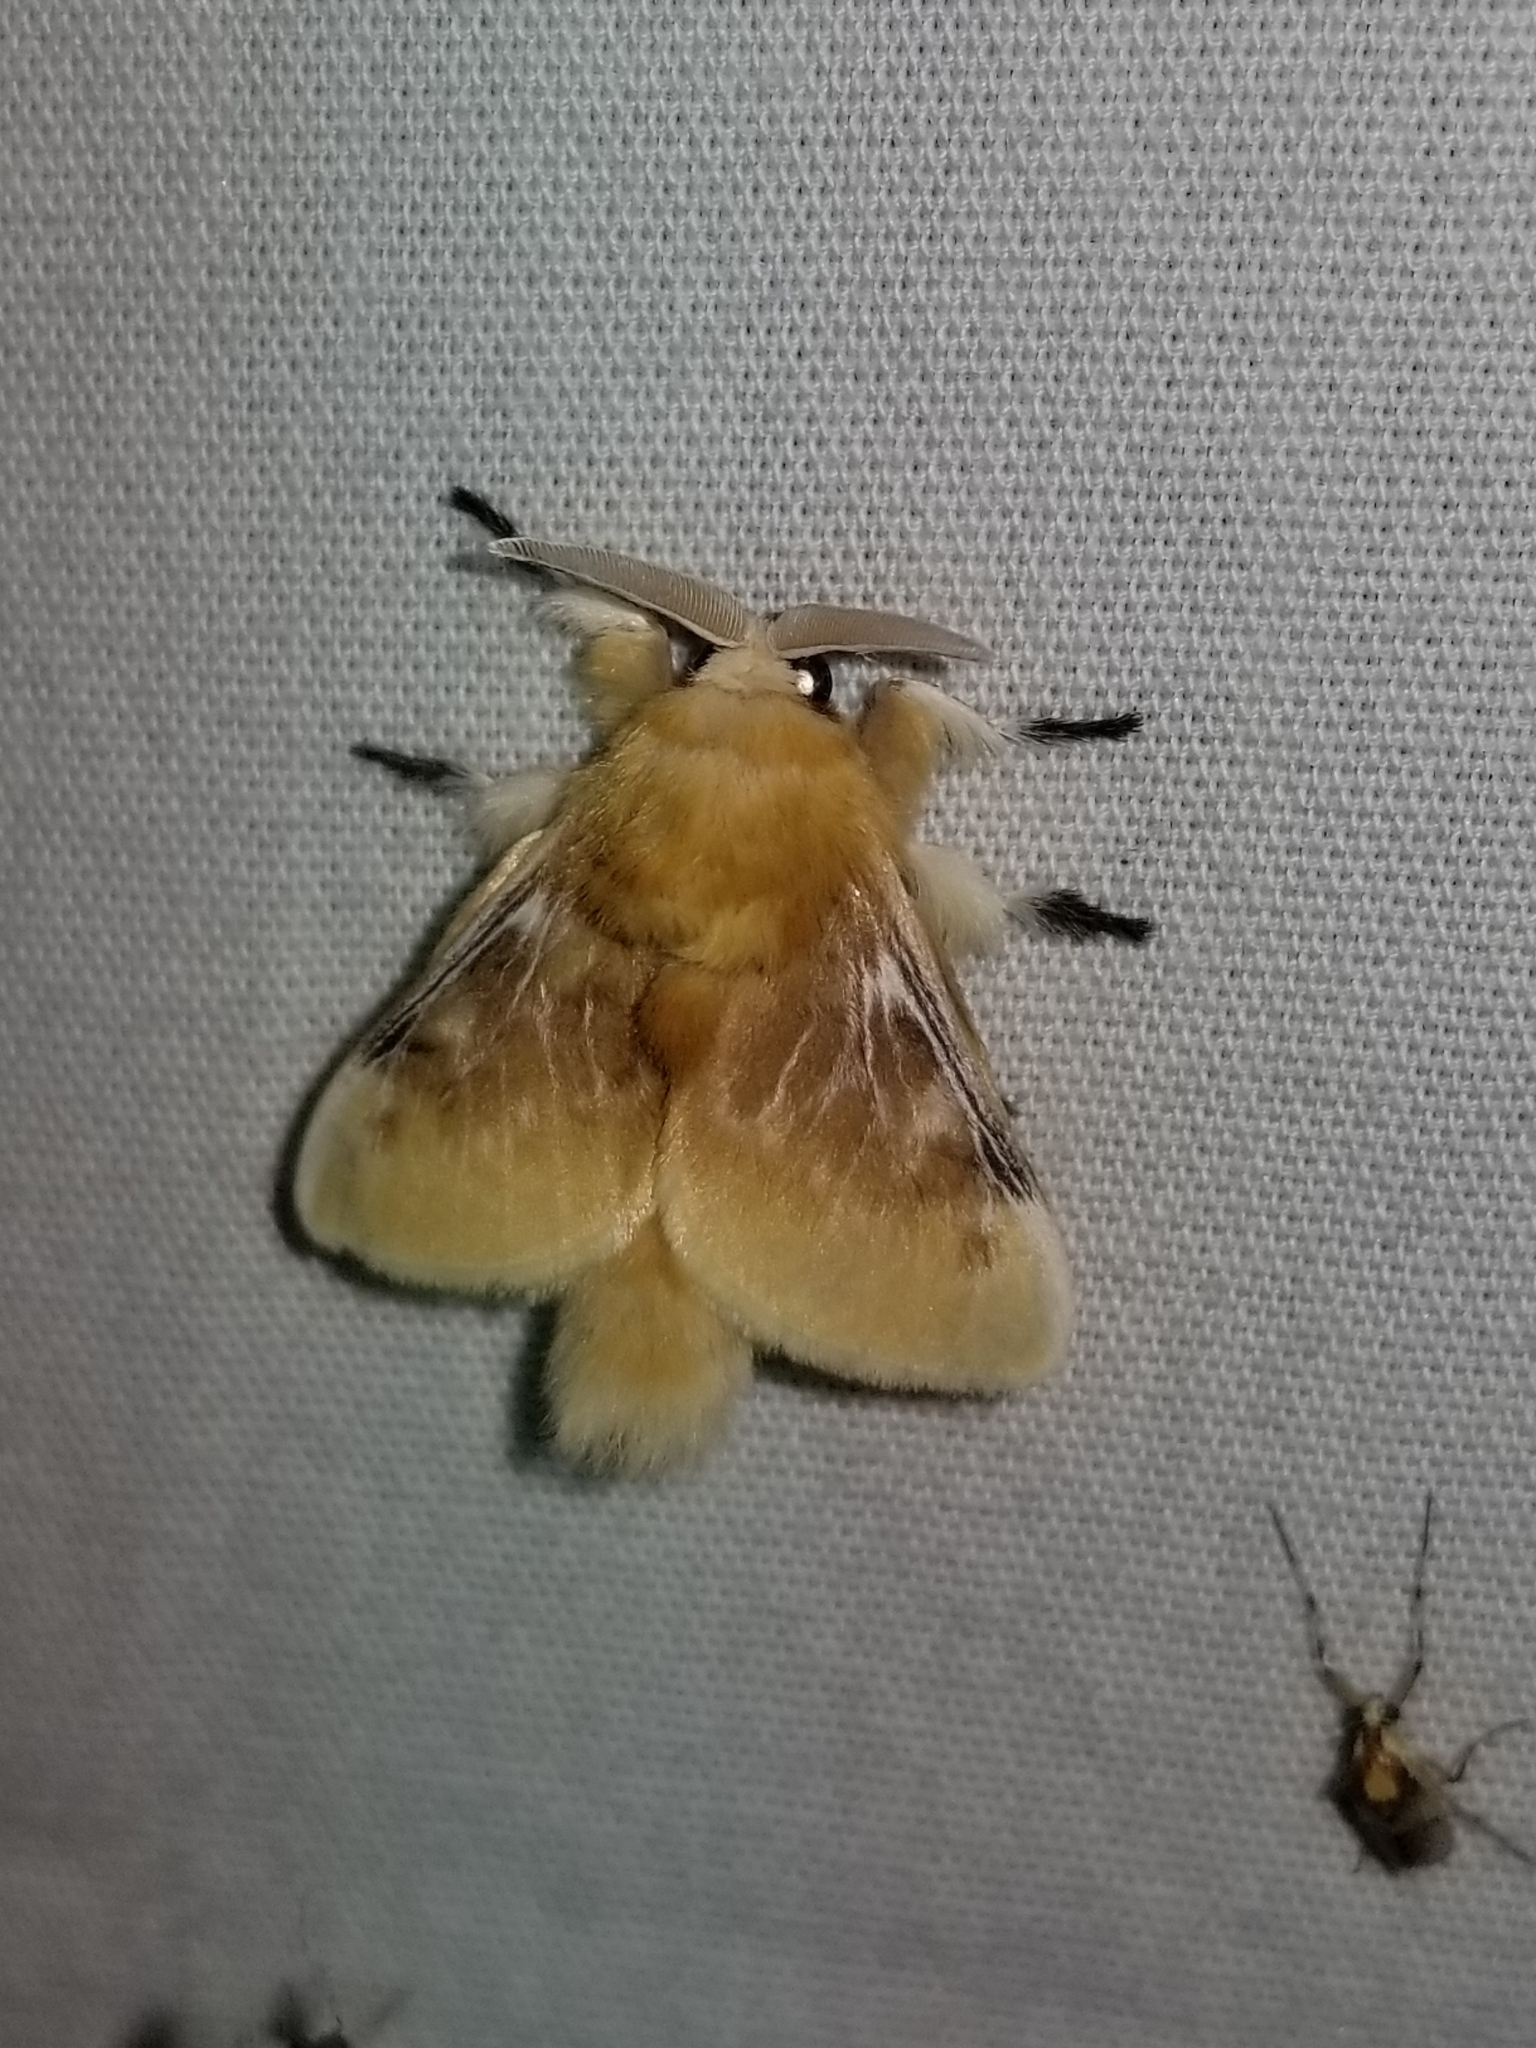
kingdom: Animalia
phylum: Arthropoda
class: Insecta
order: Lepidoptera
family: Megalopygidae
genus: Megalopyge
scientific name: Megalopyge opercularis
